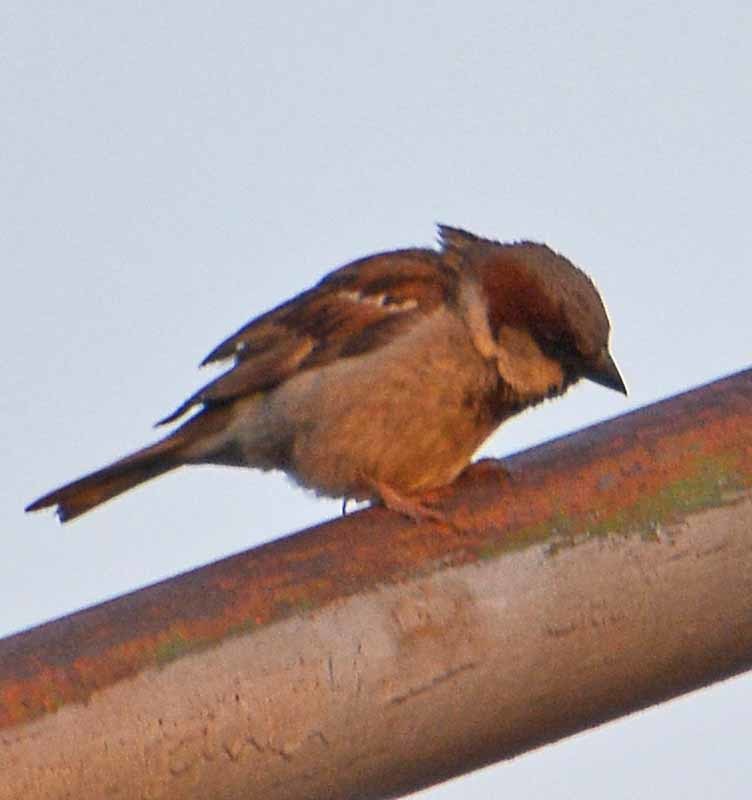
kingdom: Animalia
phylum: Chordata
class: Aves
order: Passeriformes
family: Passeridae
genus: Passer
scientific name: Passer domesticus
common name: House sparrow
